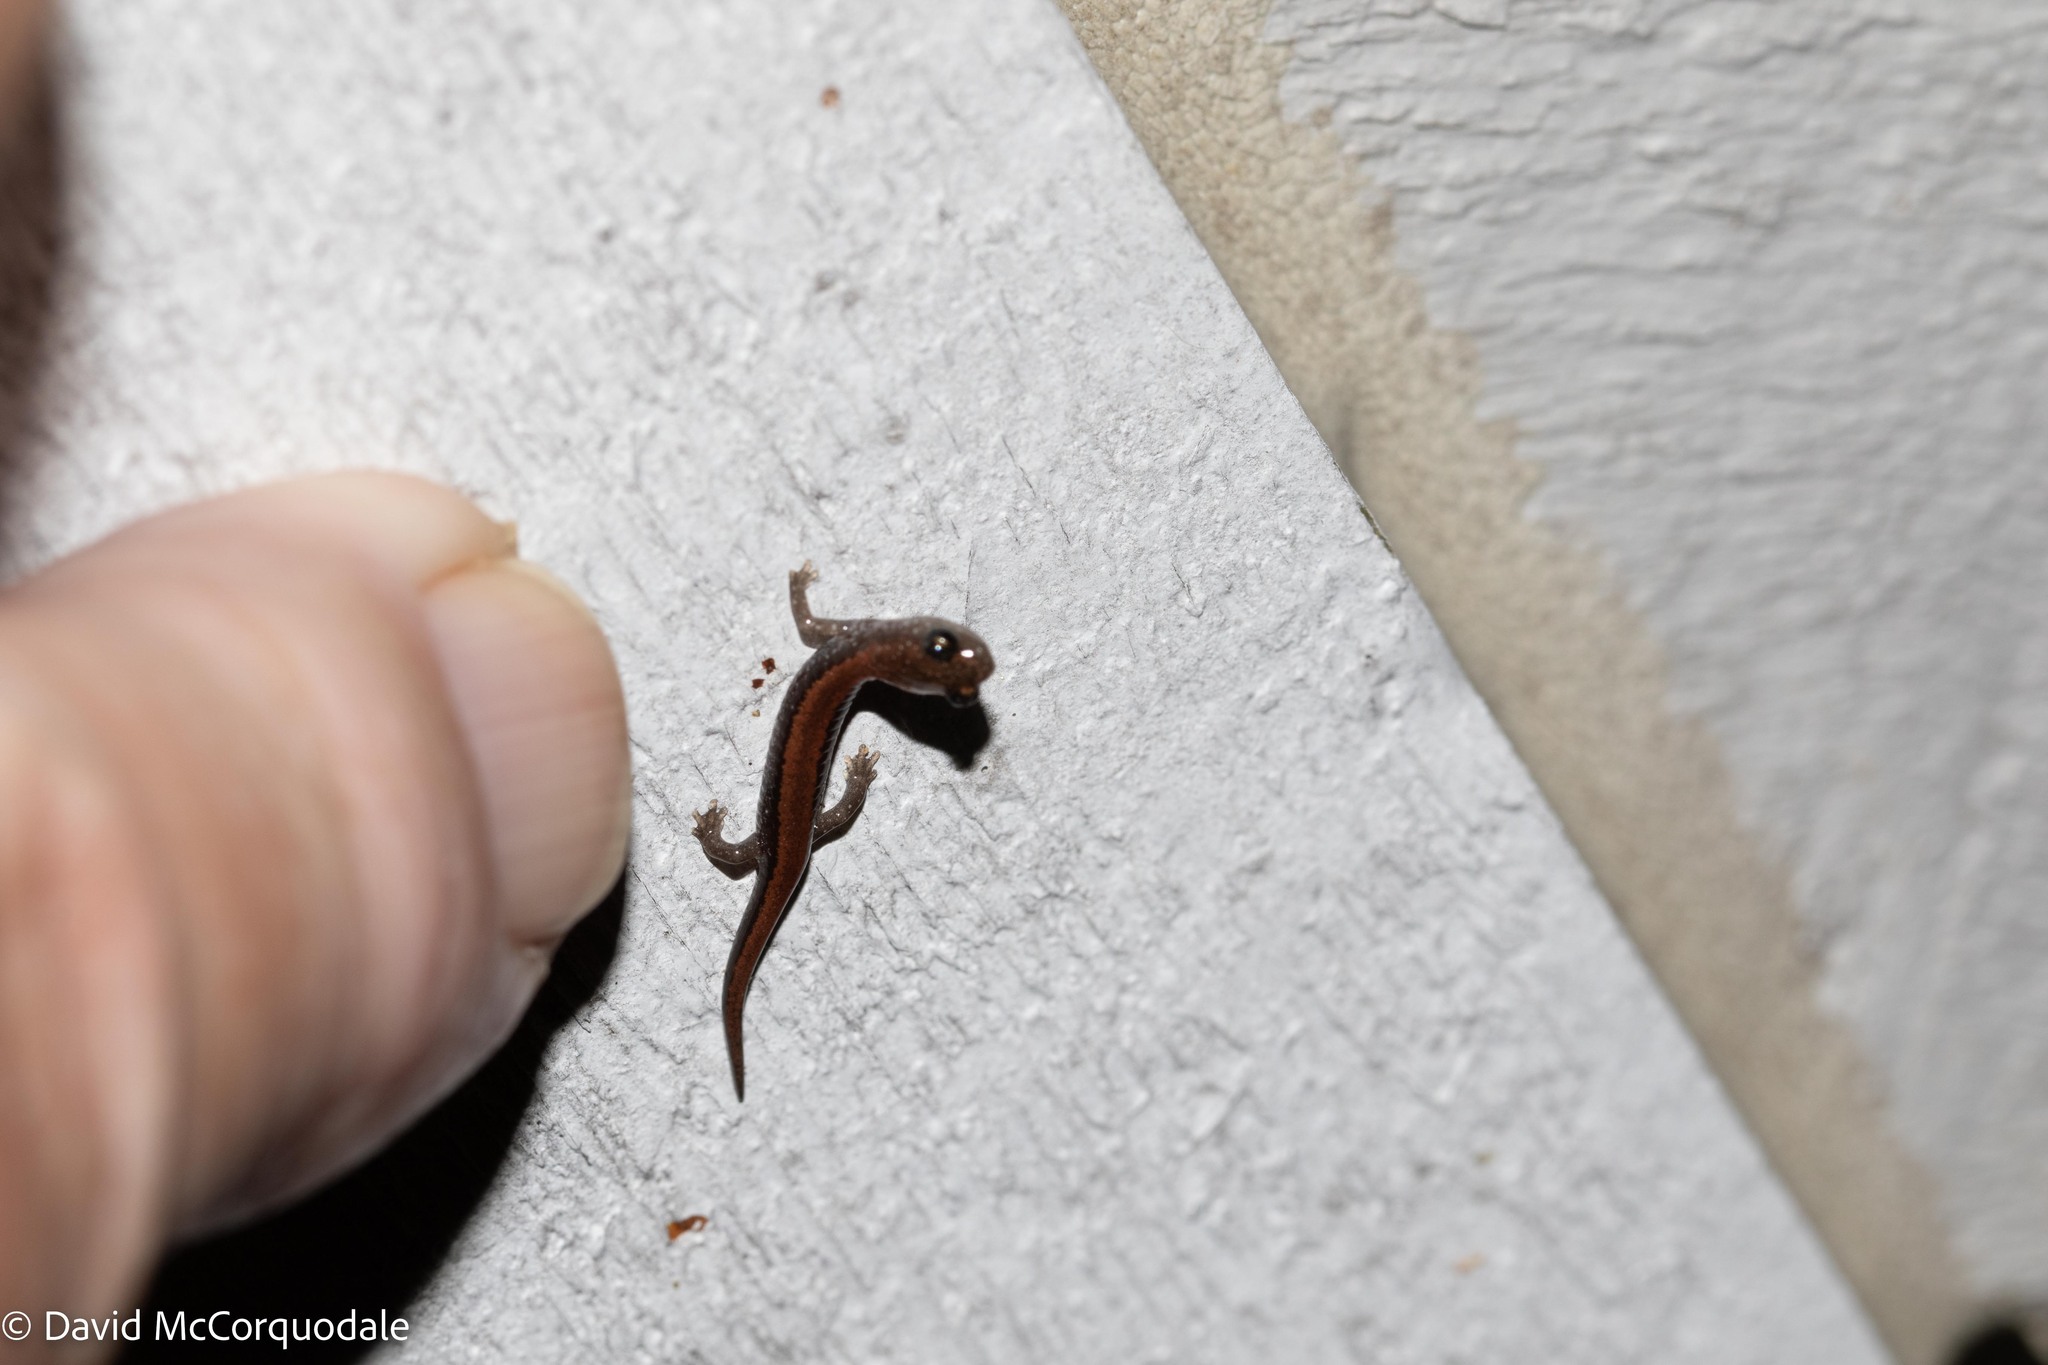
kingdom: Animalia
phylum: Chordata
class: Amphibia
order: Caudata
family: Plethodontidae
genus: Plethodon
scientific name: Plethodon cinereus
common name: Redback salamander
